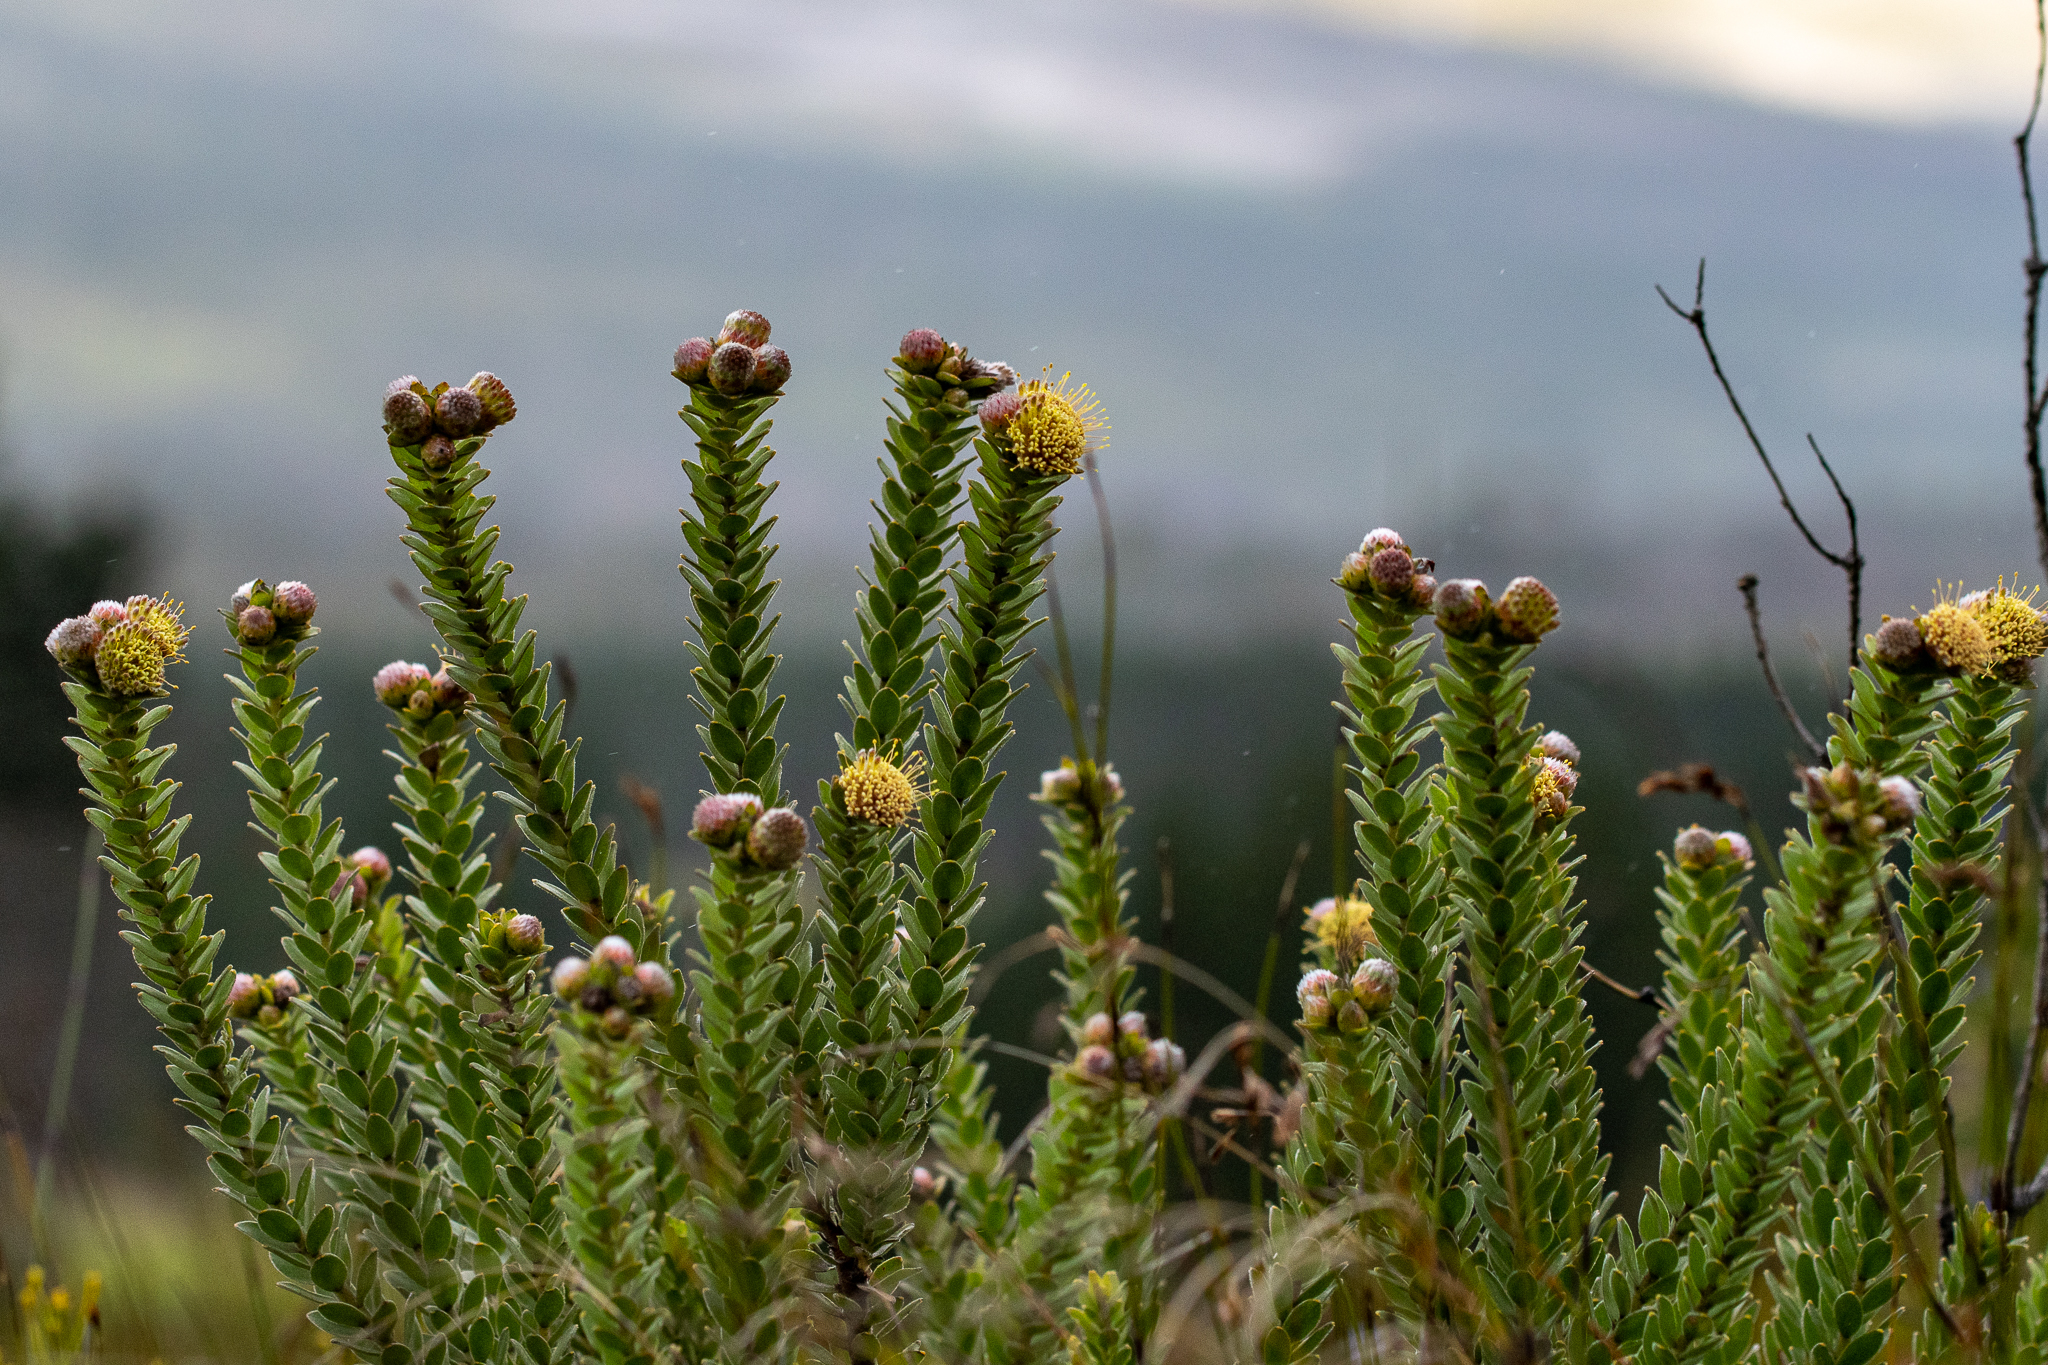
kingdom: Plantae
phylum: Tracheophyta
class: Magnoliopsida
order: Proteales
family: Proteaceae
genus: Leucospermum
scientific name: Leucospermum truncatulum
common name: Oval-leaf pincushion
